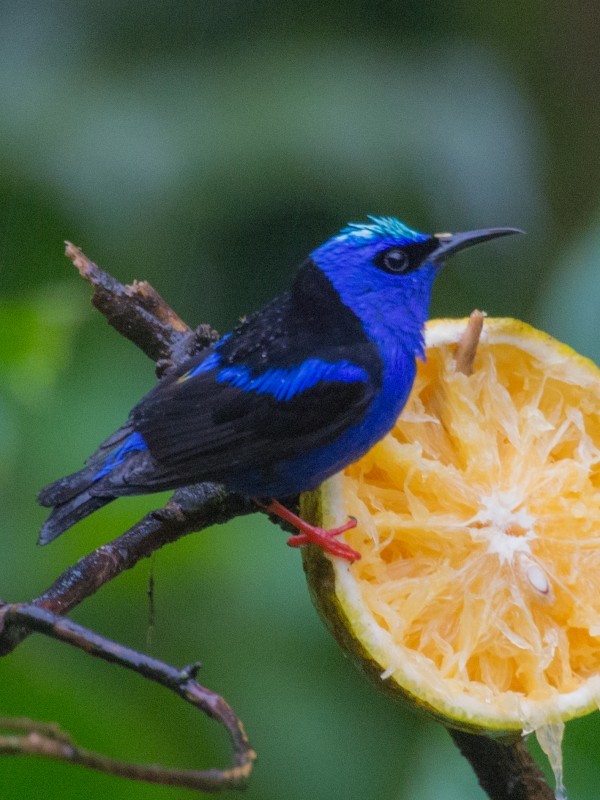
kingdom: Animalia
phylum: Chordata
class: Aves
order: Passeriformes
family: Thraupidae
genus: Cyanerpes
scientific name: Cyanerpes cyaneus
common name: Red-legged honeycreeper
